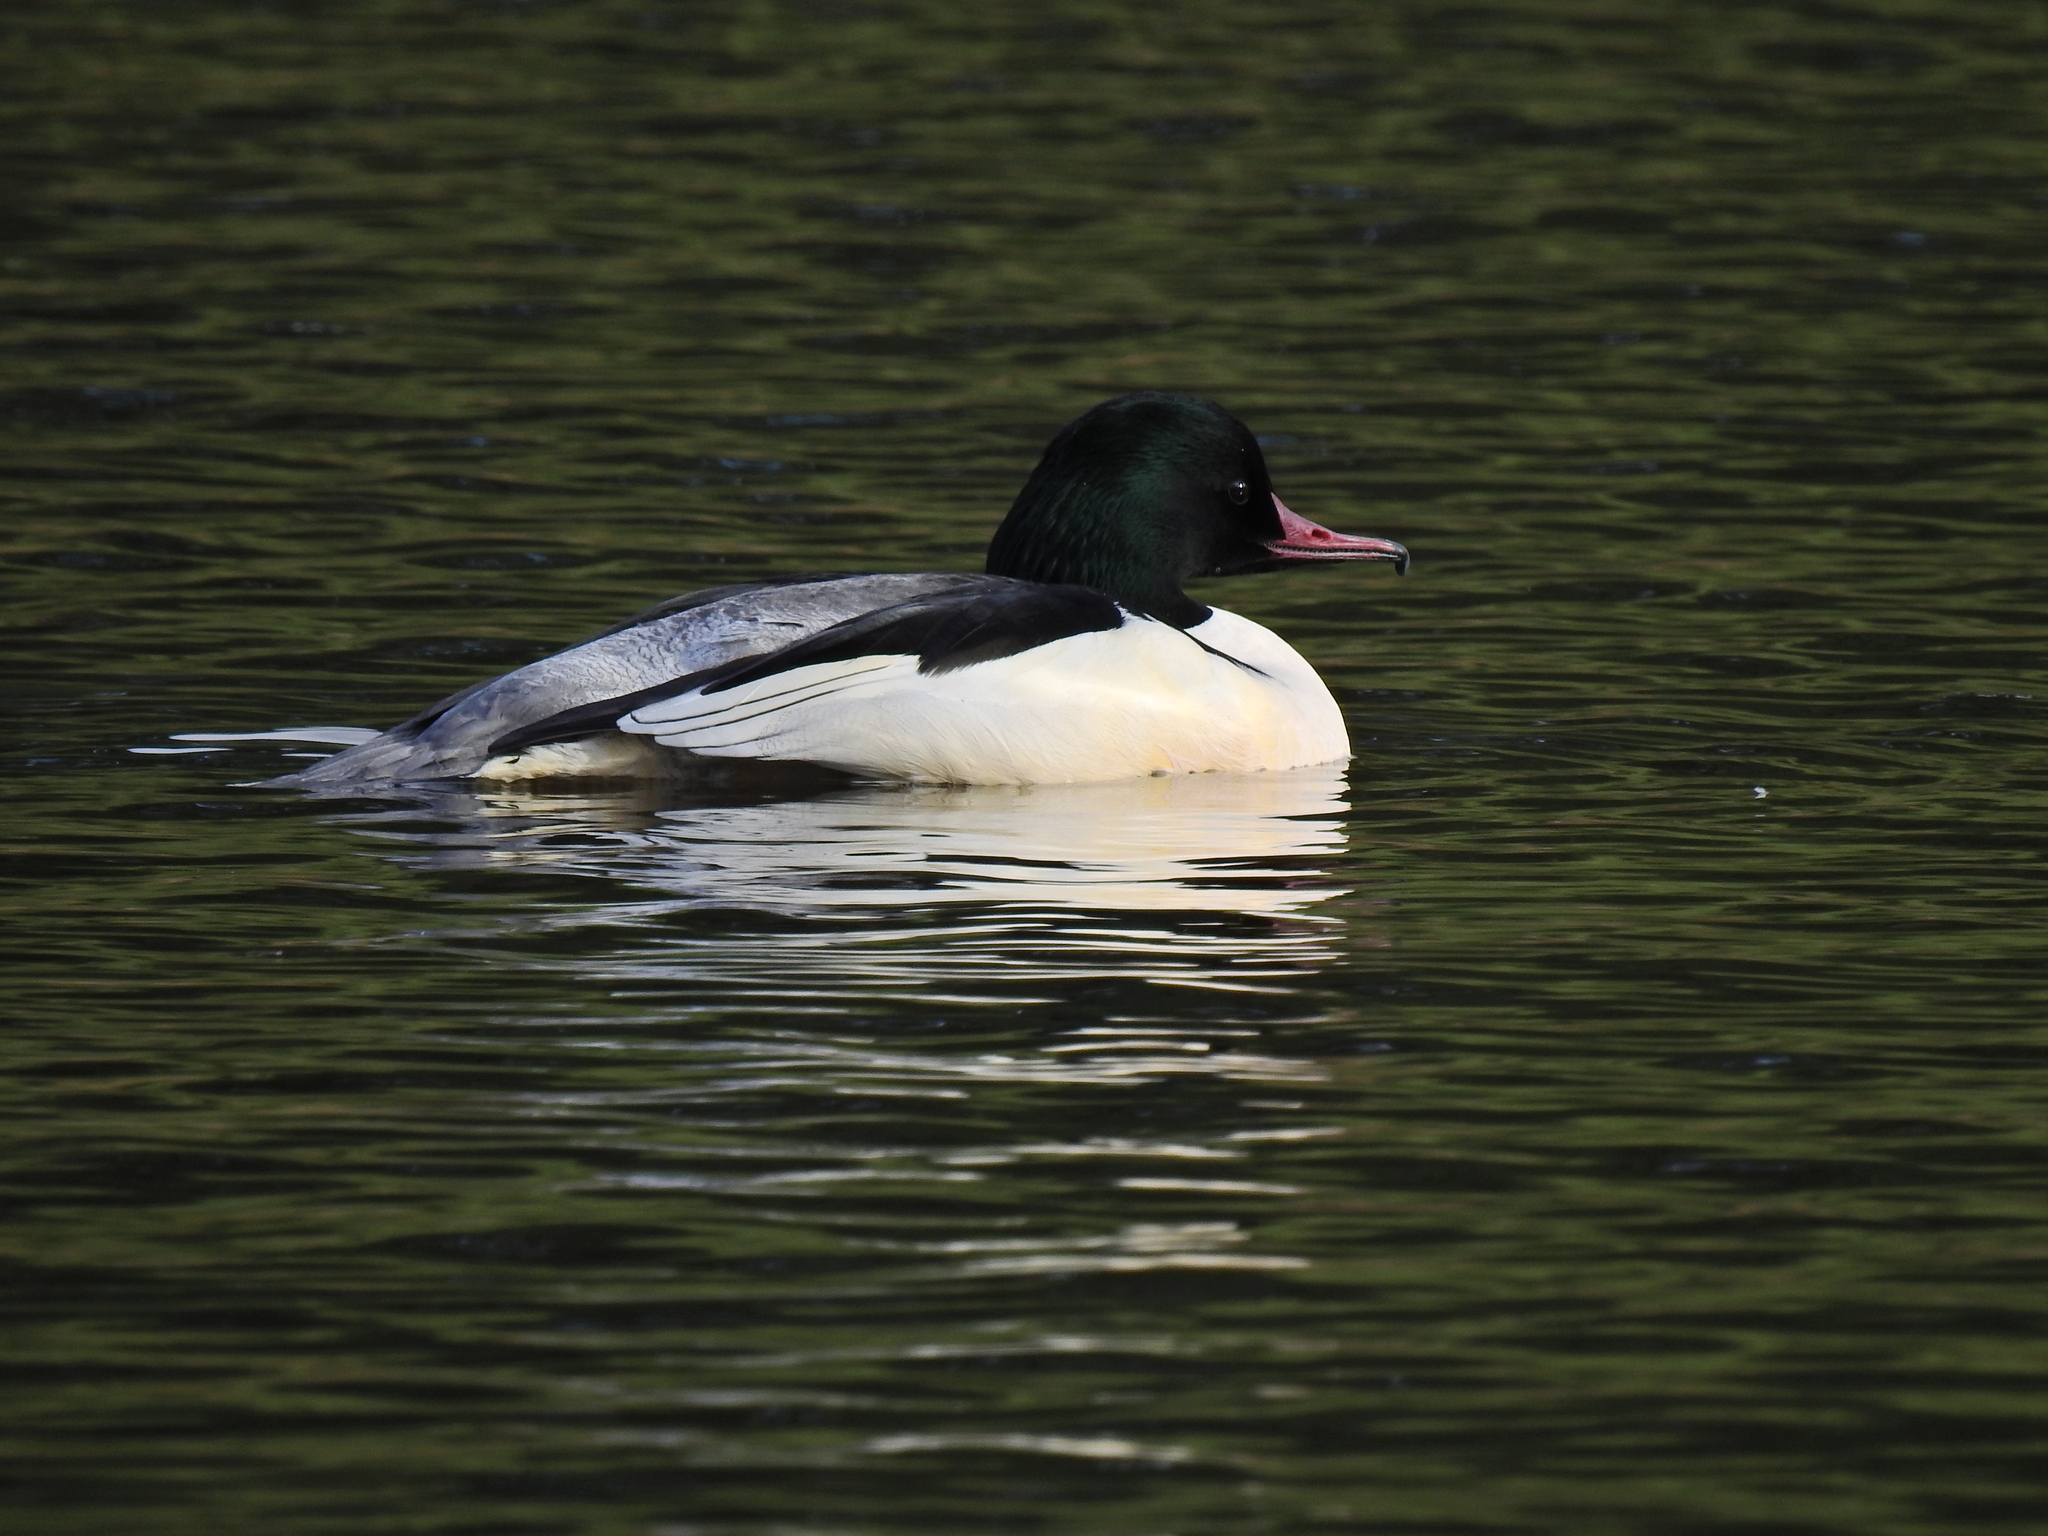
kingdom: Animalia
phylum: Chordata
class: Aves
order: Anseriformes
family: Anatidae
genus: Mergus
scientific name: Mergus merganser
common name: Common merganser
